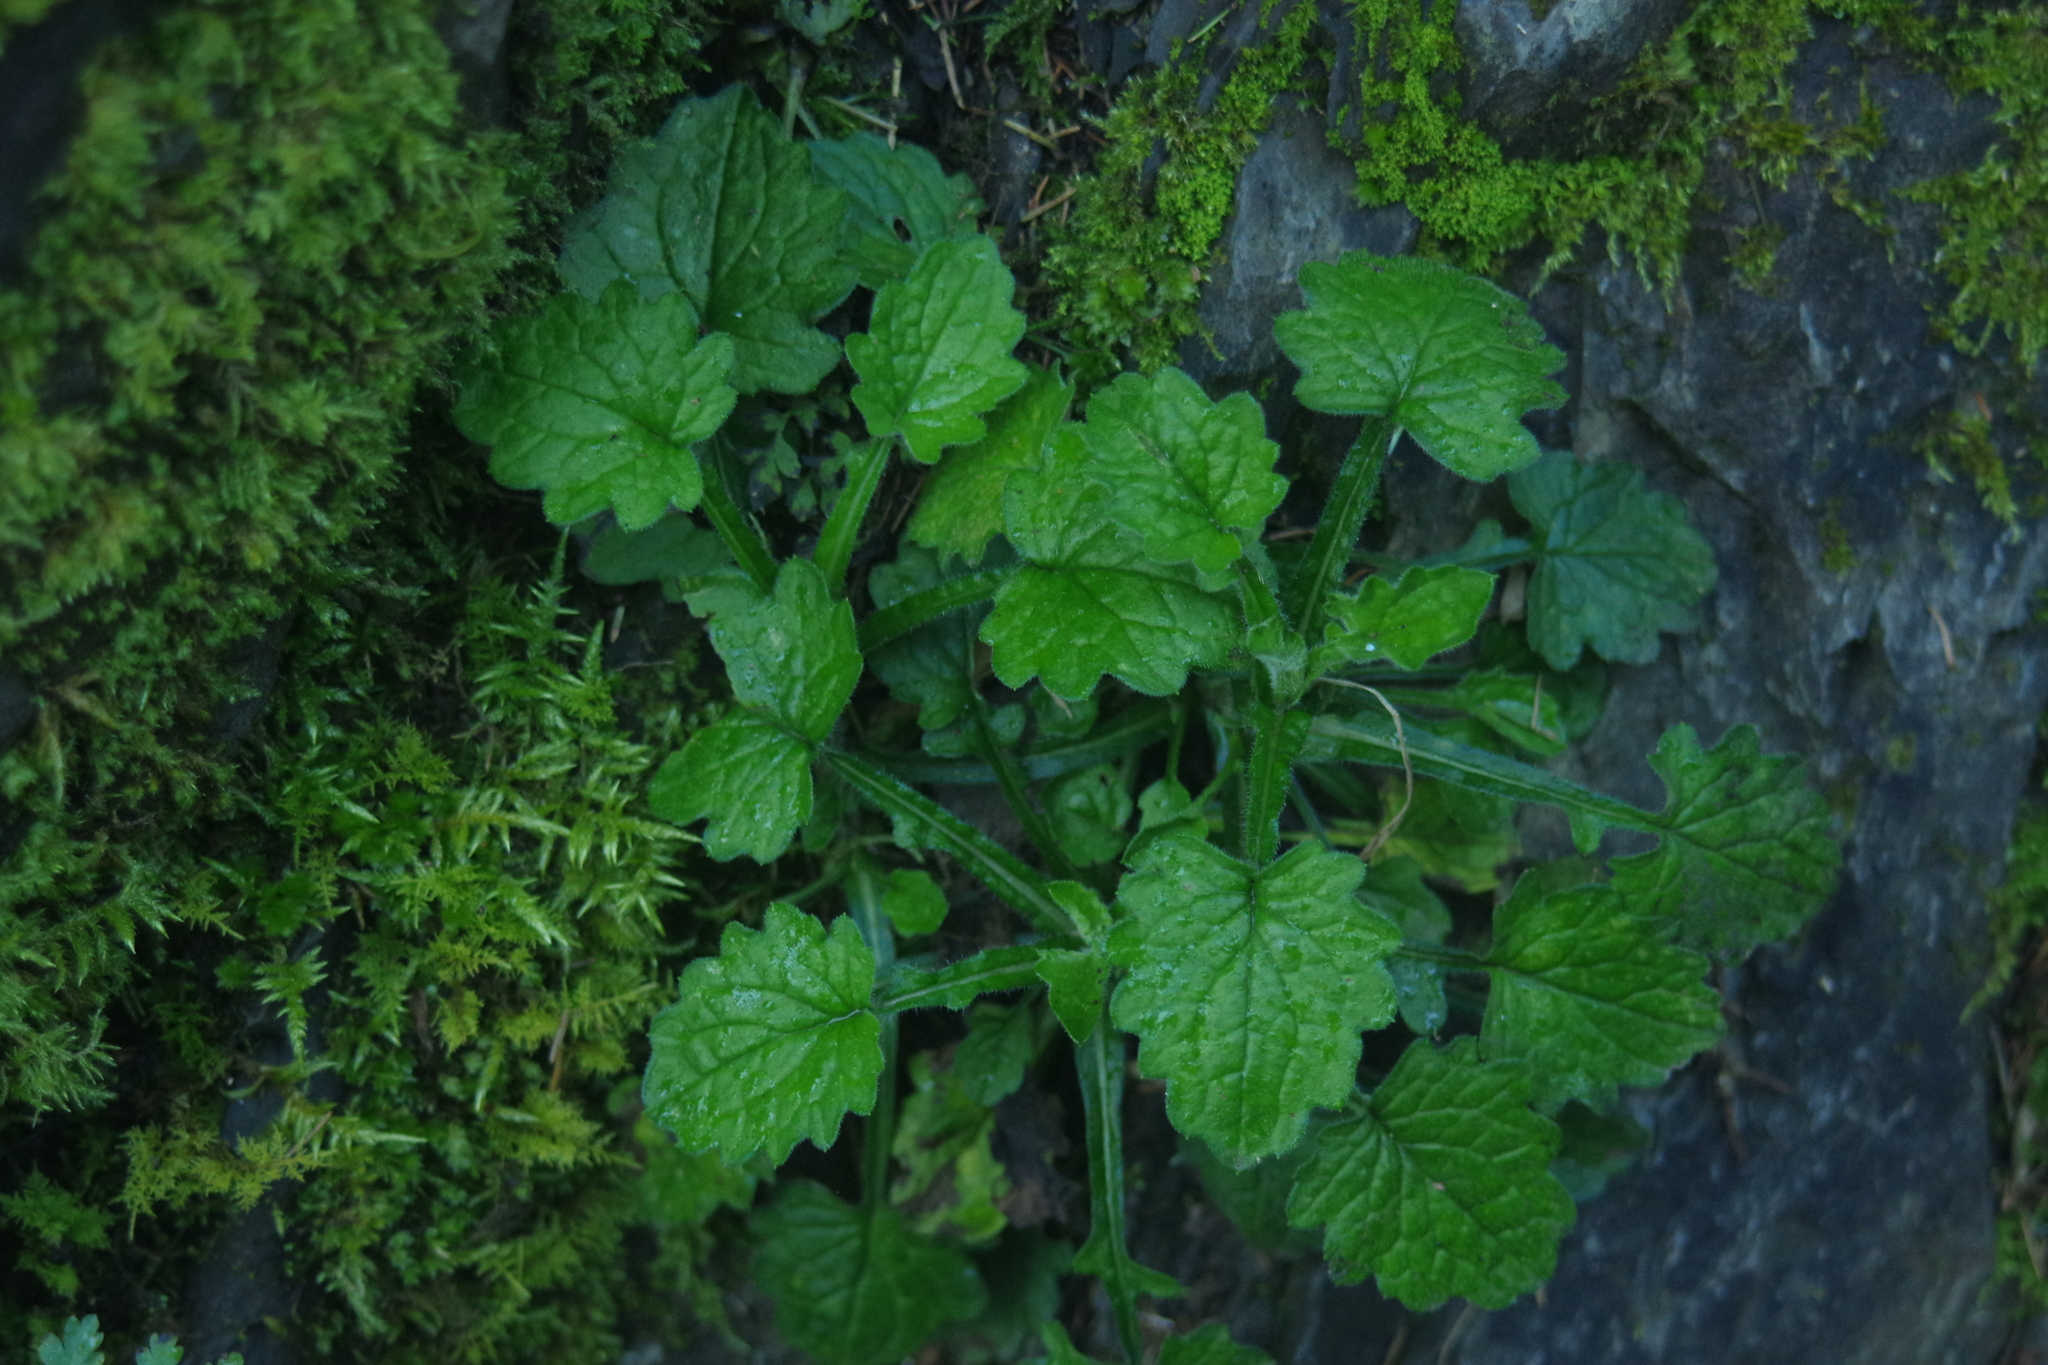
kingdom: Plantae
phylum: Tracheophyta
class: Magnoliopsida
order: Asterales
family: Asteraceae
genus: Myriactis
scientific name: Myriactis humilis
